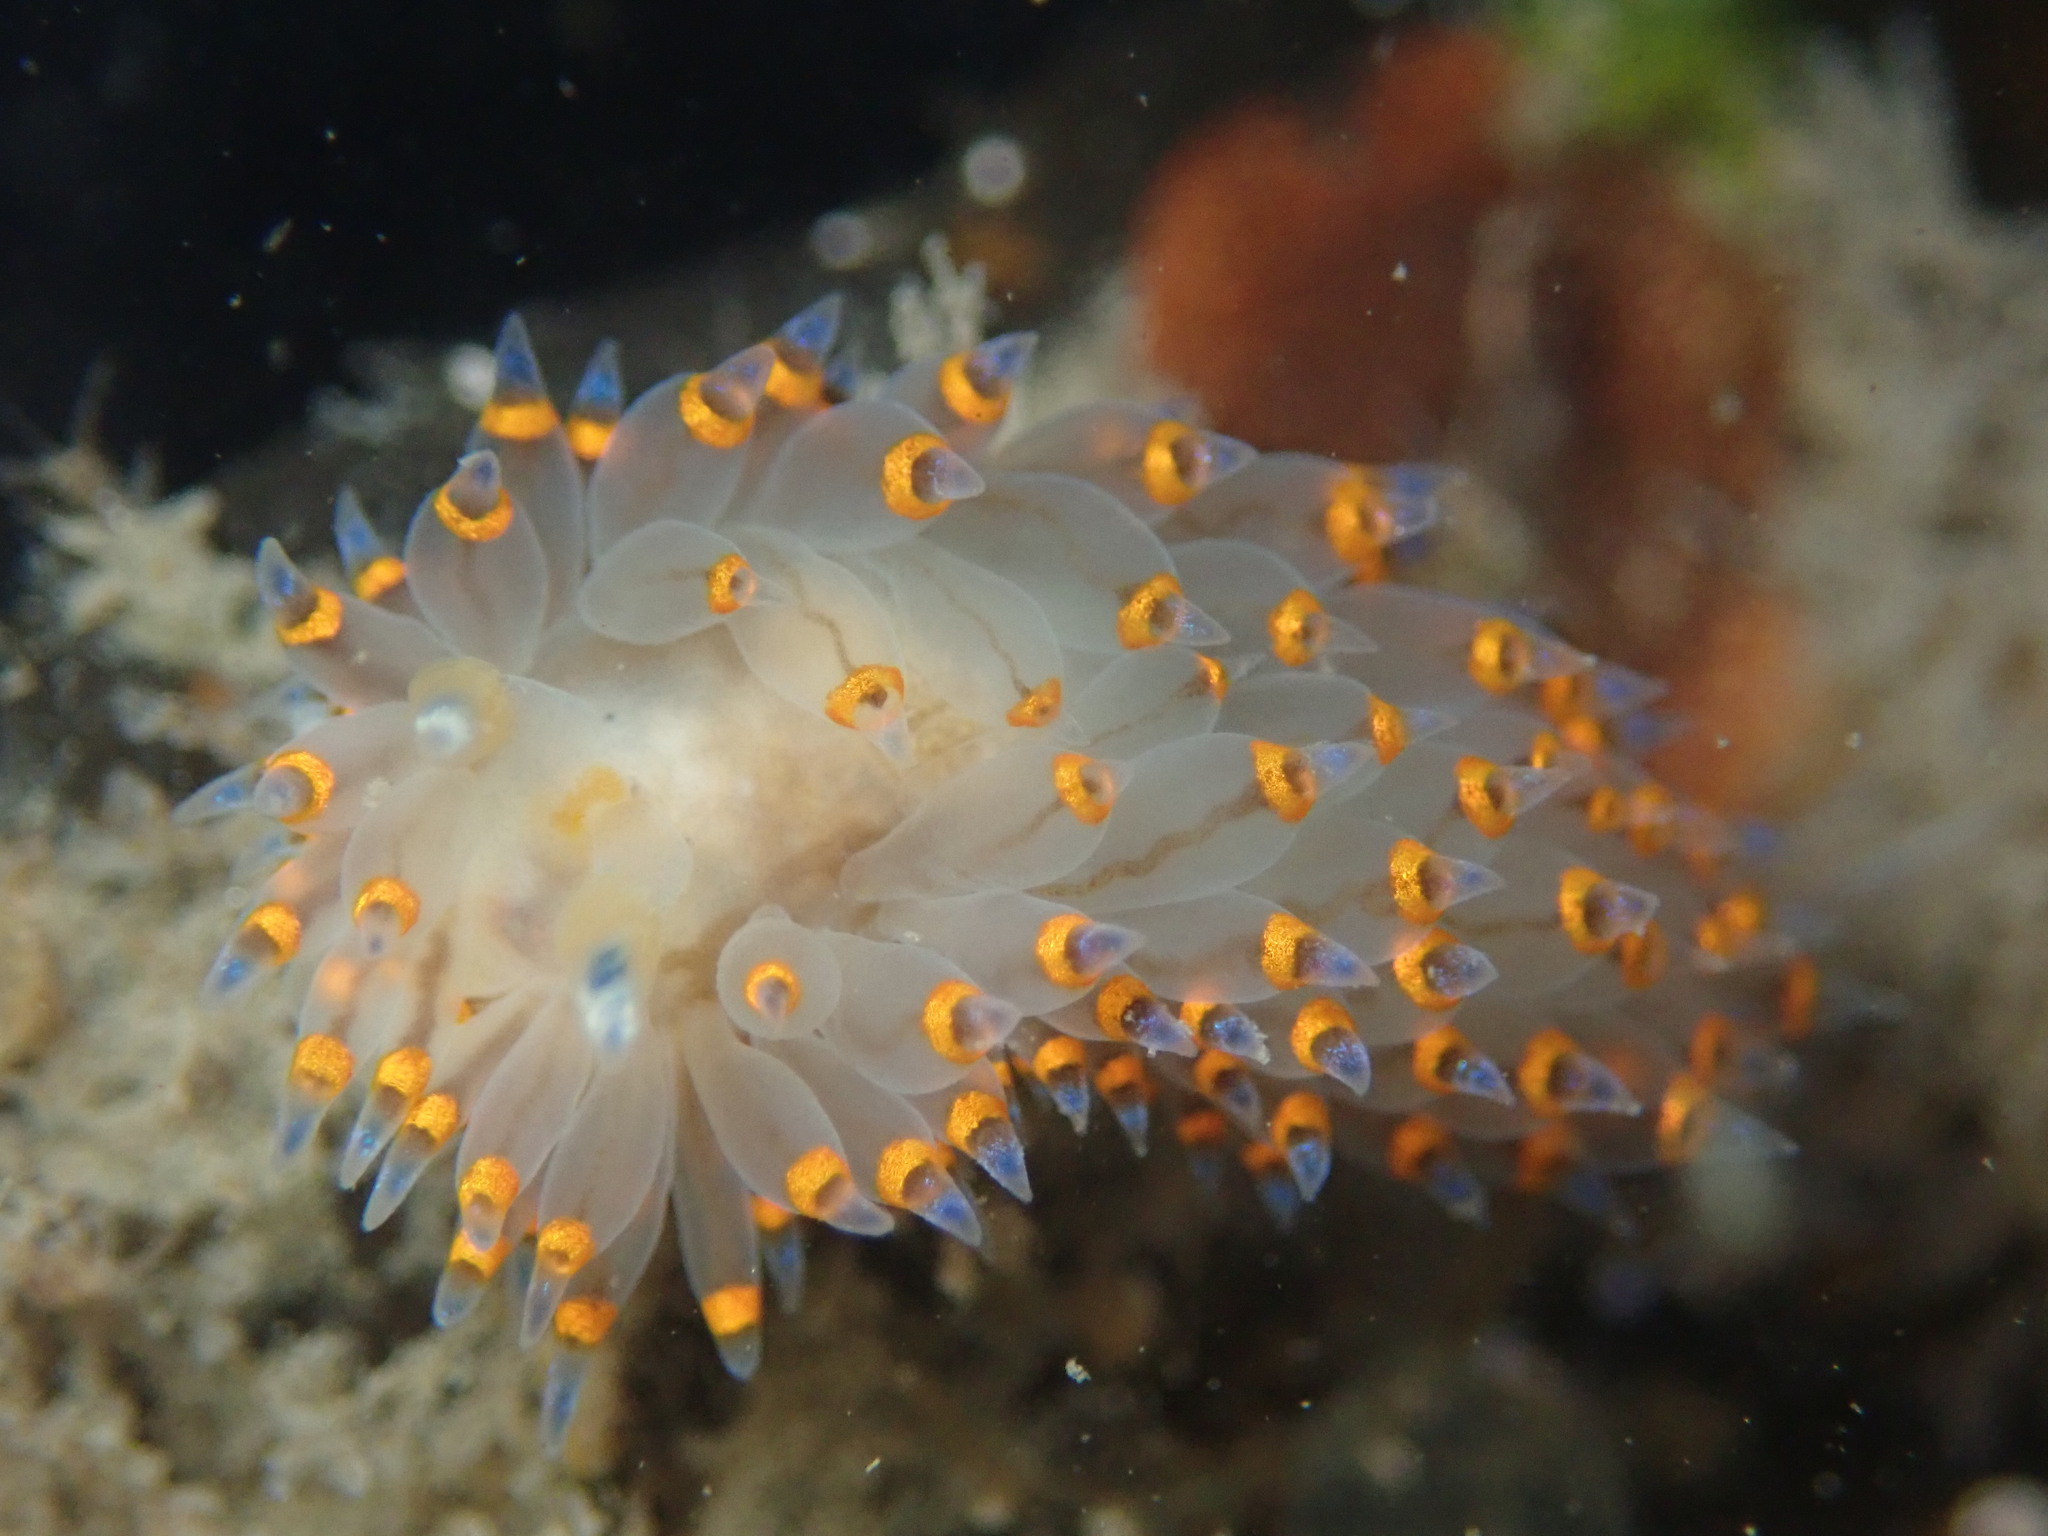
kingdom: Animalia
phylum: Mollusca
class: Gastropoda
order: Nudibranchia
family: Janolidae
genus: Antiopella
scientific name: Antiopella barbarensis
